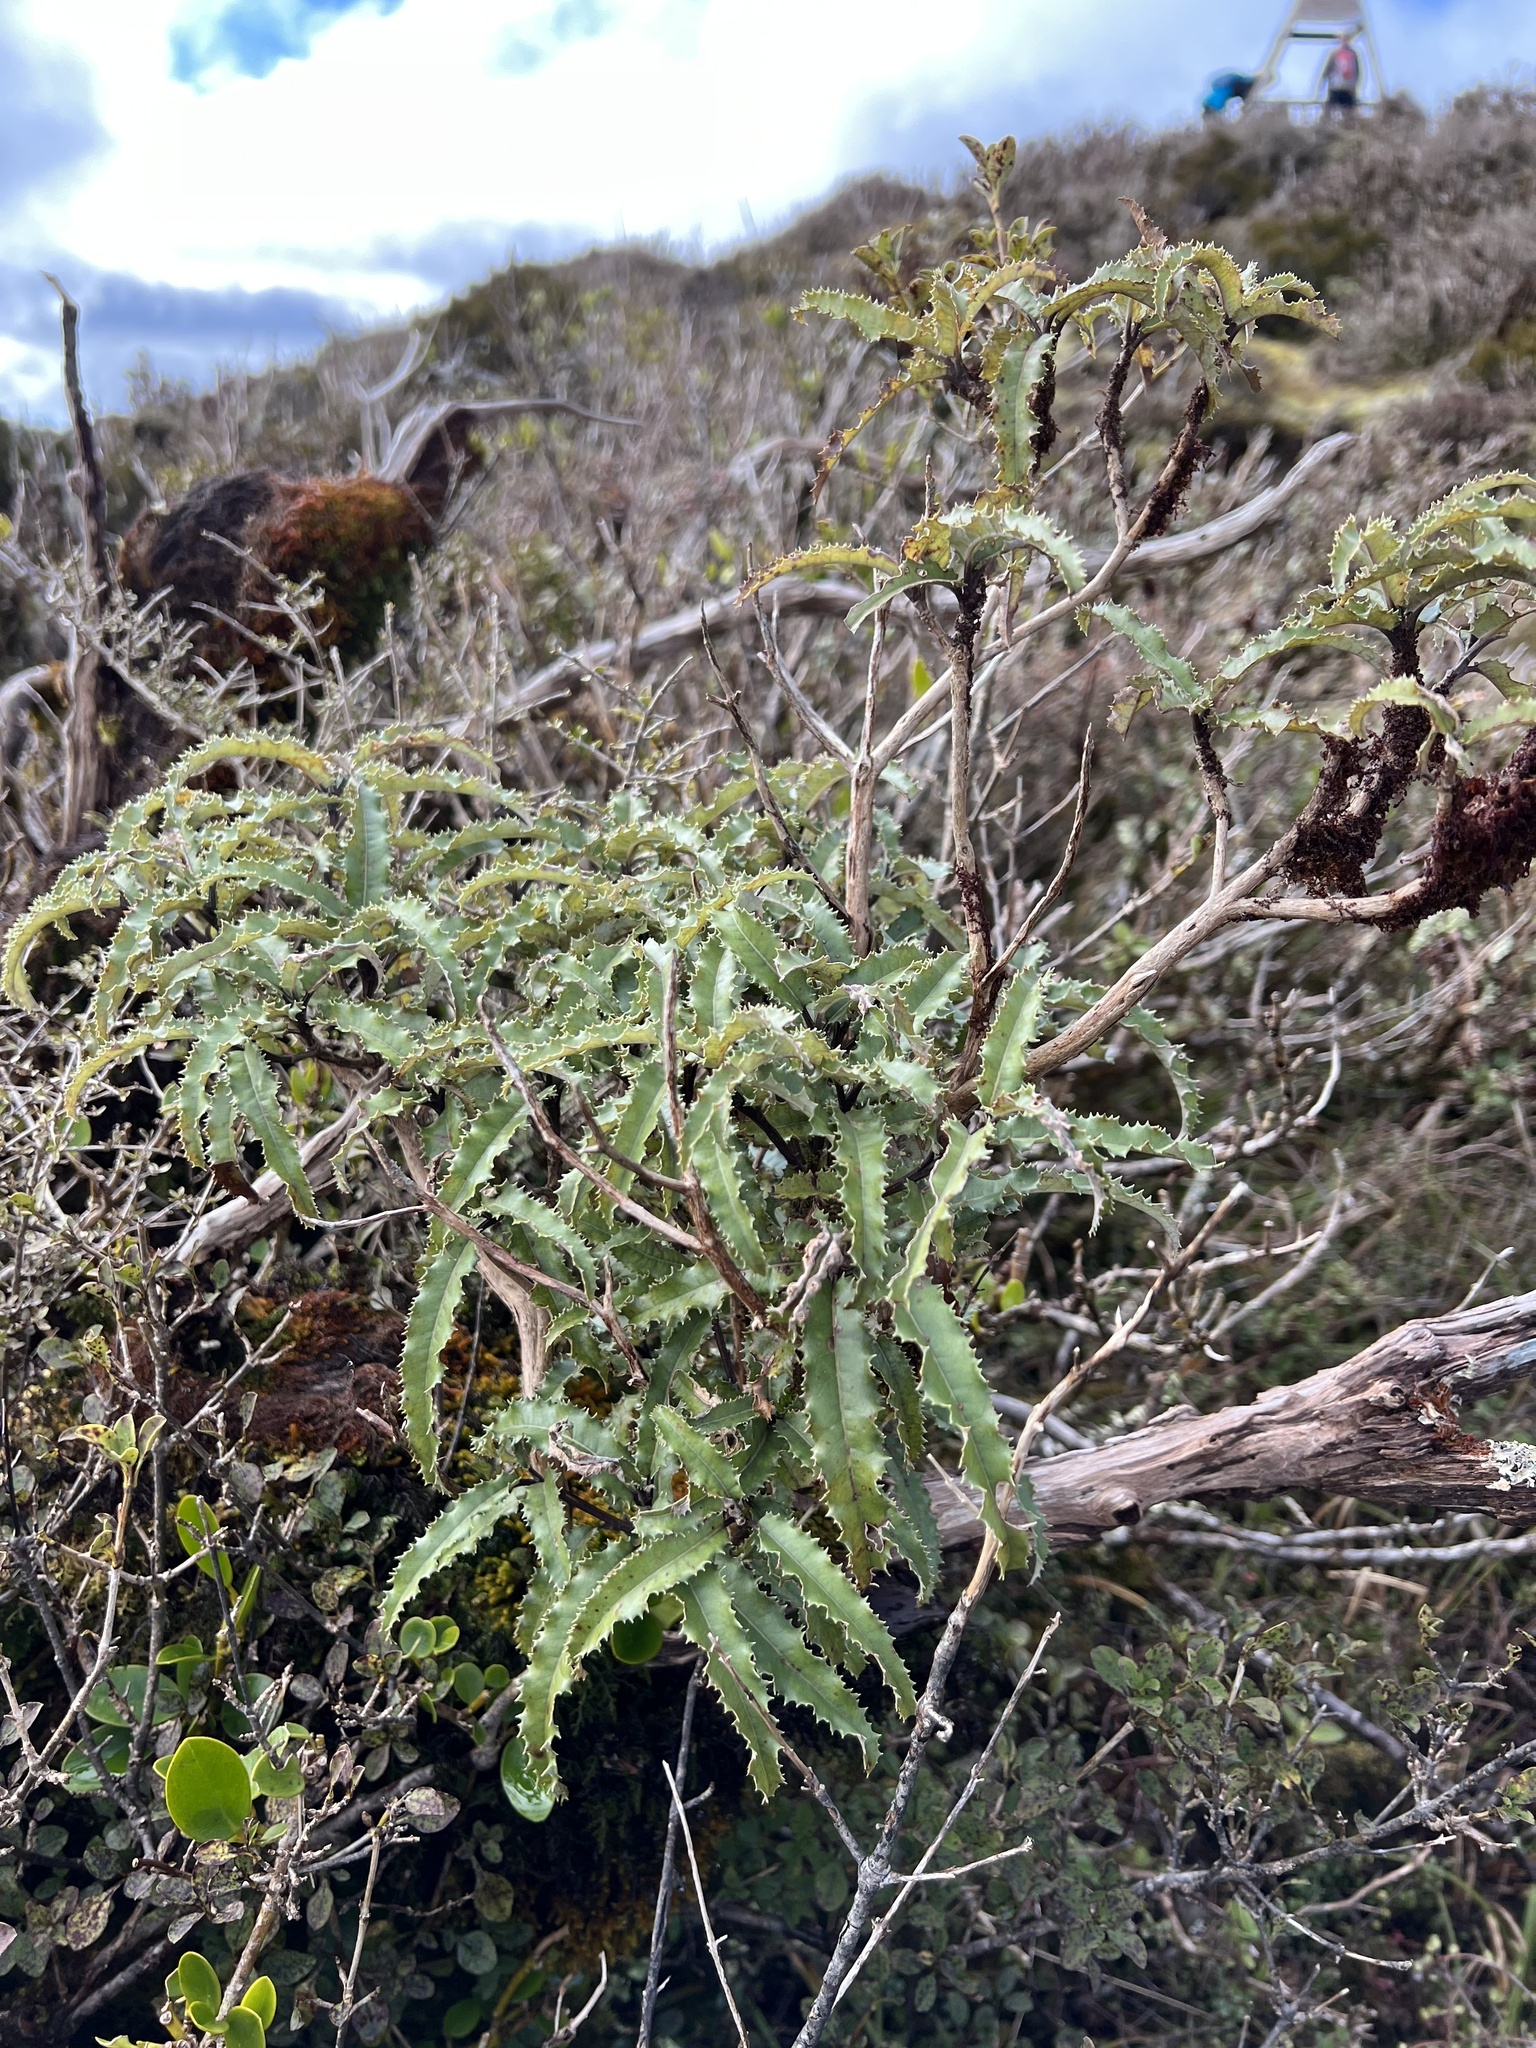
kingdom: Plantae
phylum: Tracheophyta
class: Magnoliopsida
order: Asterales
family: Asteraceae
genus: Olearia
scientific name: Olearia ilicifolia
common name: Maori-holly
